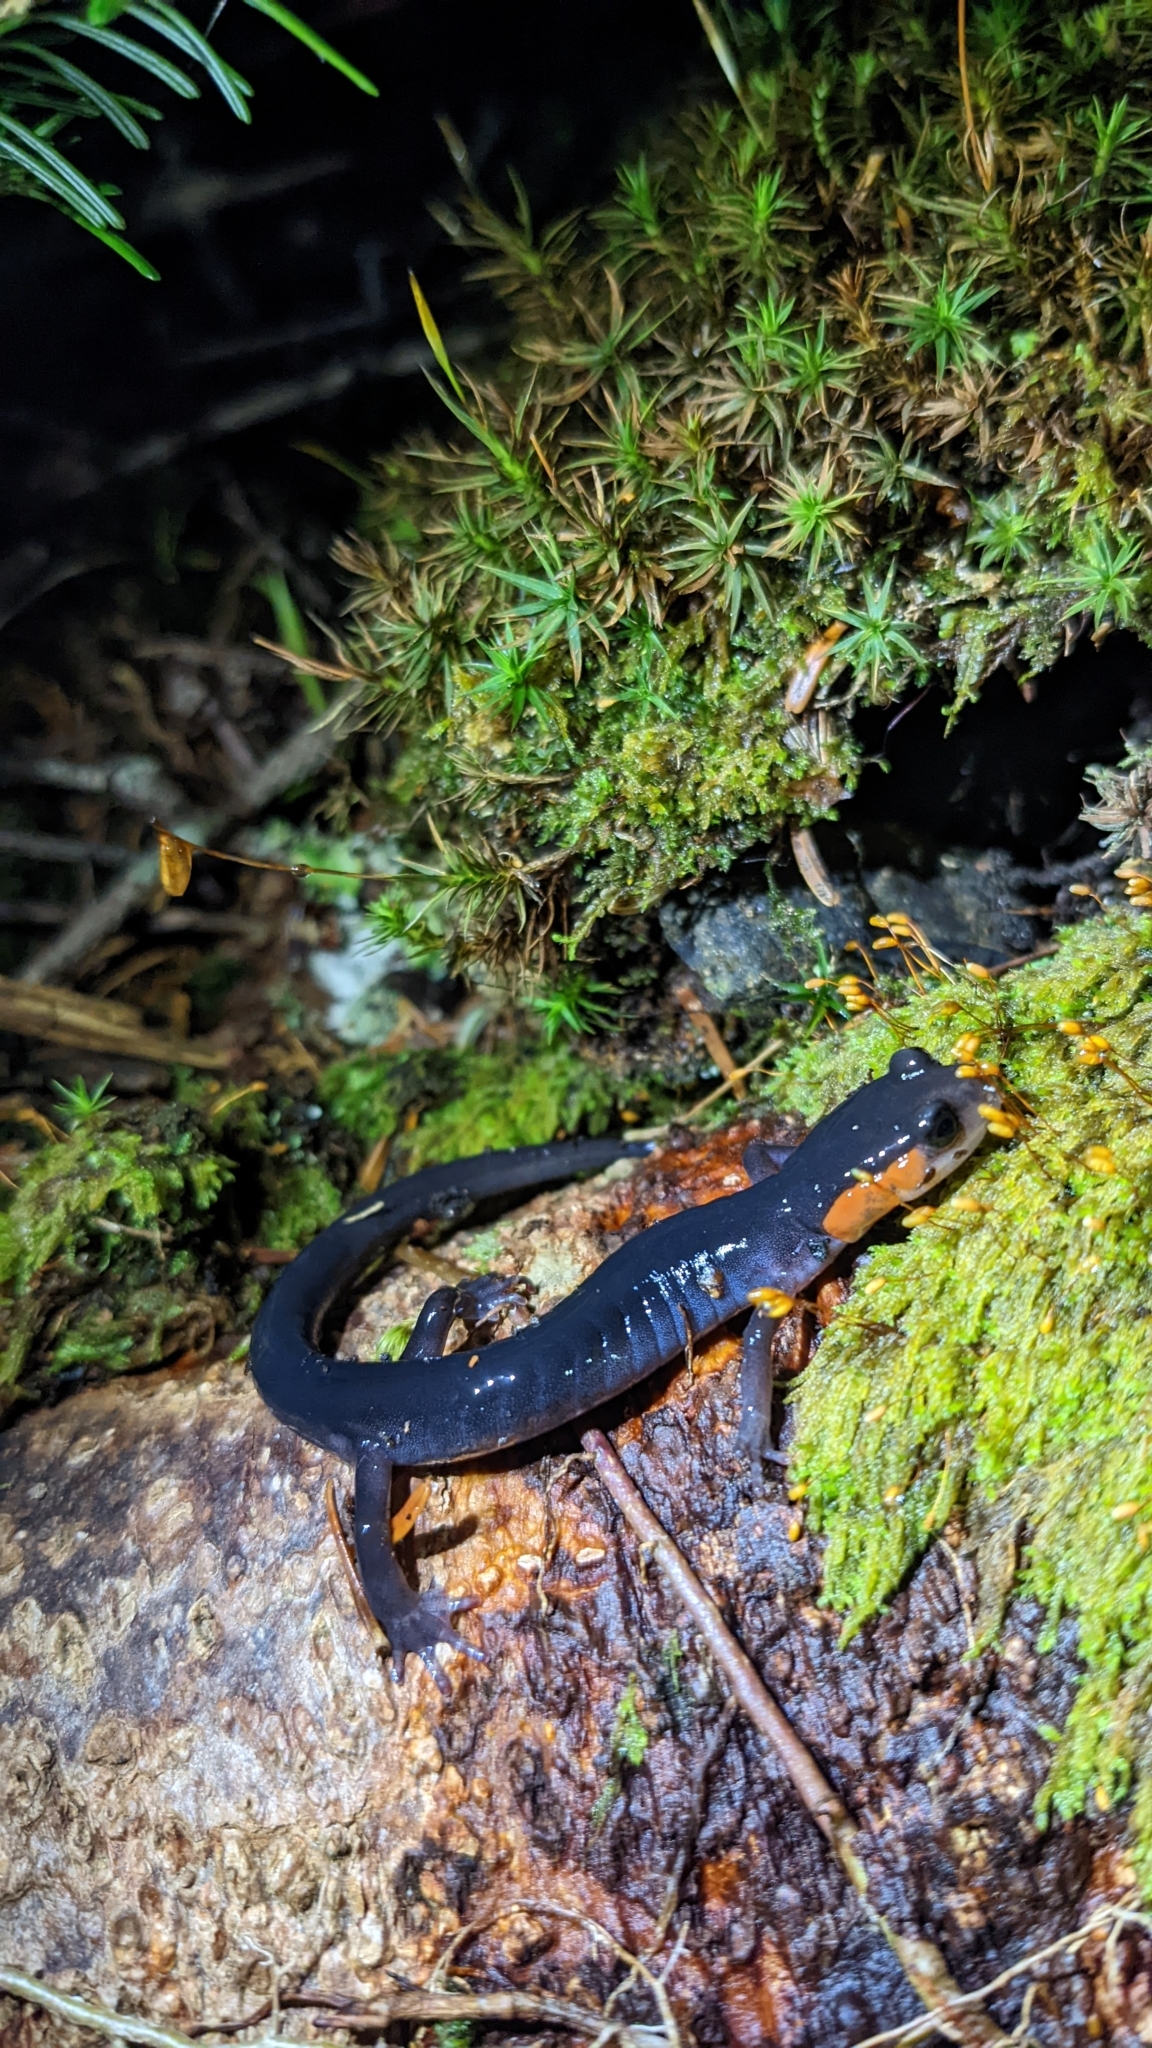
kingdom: Animalia
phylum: Chordata
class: Amphibia
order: Caudata
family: Plethodontidae
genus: Plethodon
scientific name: Plethodon jordani
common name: Red-cheeked salamander
